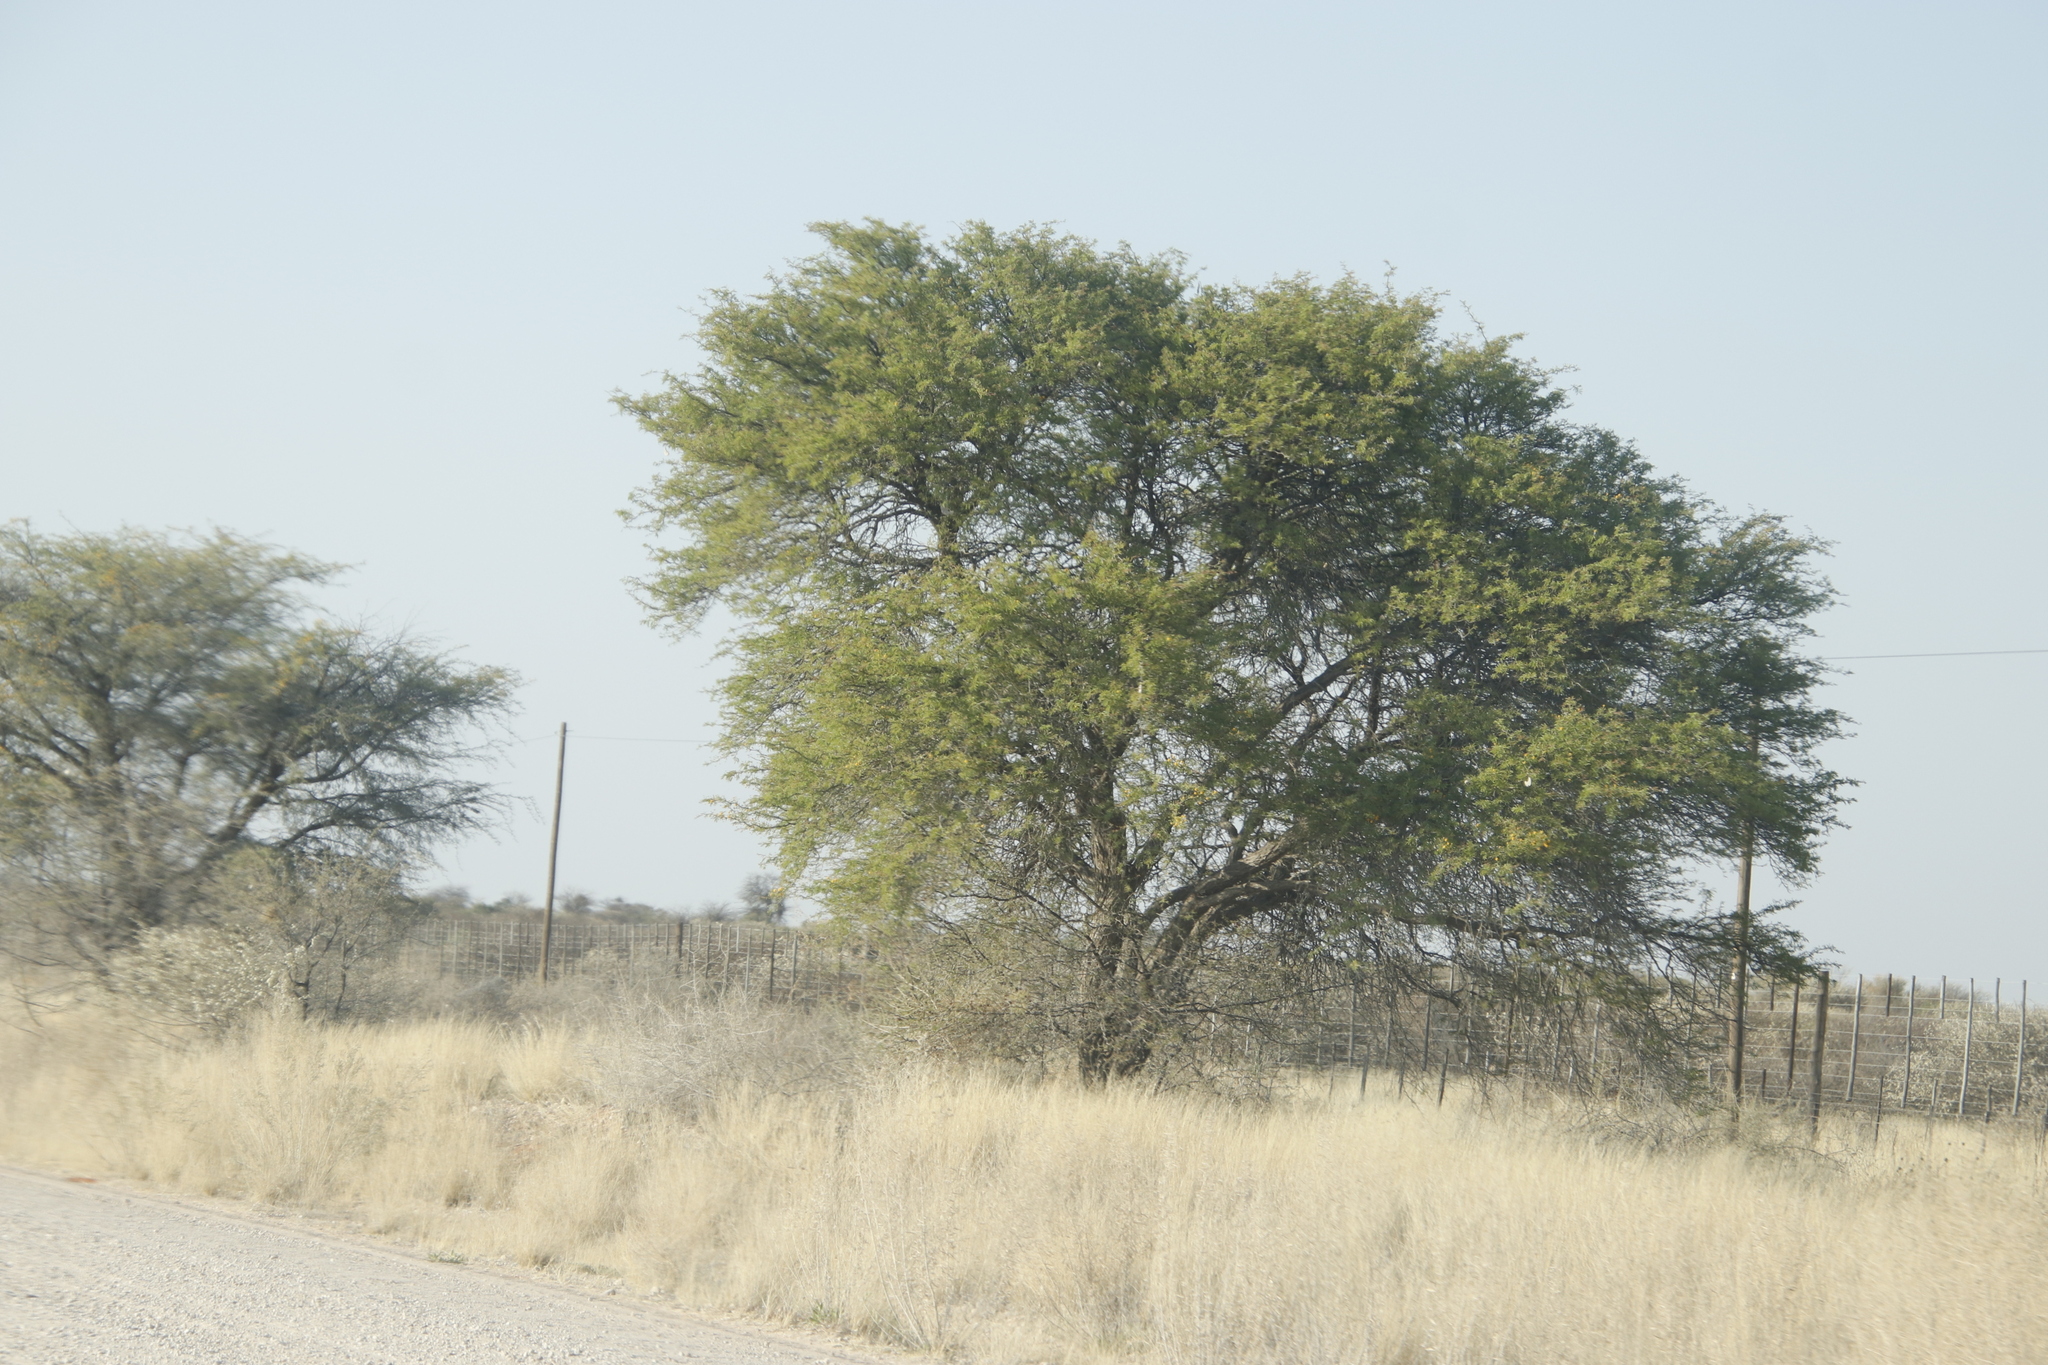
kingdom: Plantae
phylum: Tracheophyta
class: Magnoliopsida
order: Fabales
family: Fabaceae
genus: Vachellia
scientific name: Vachellia erioloba
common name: Camel thorn
